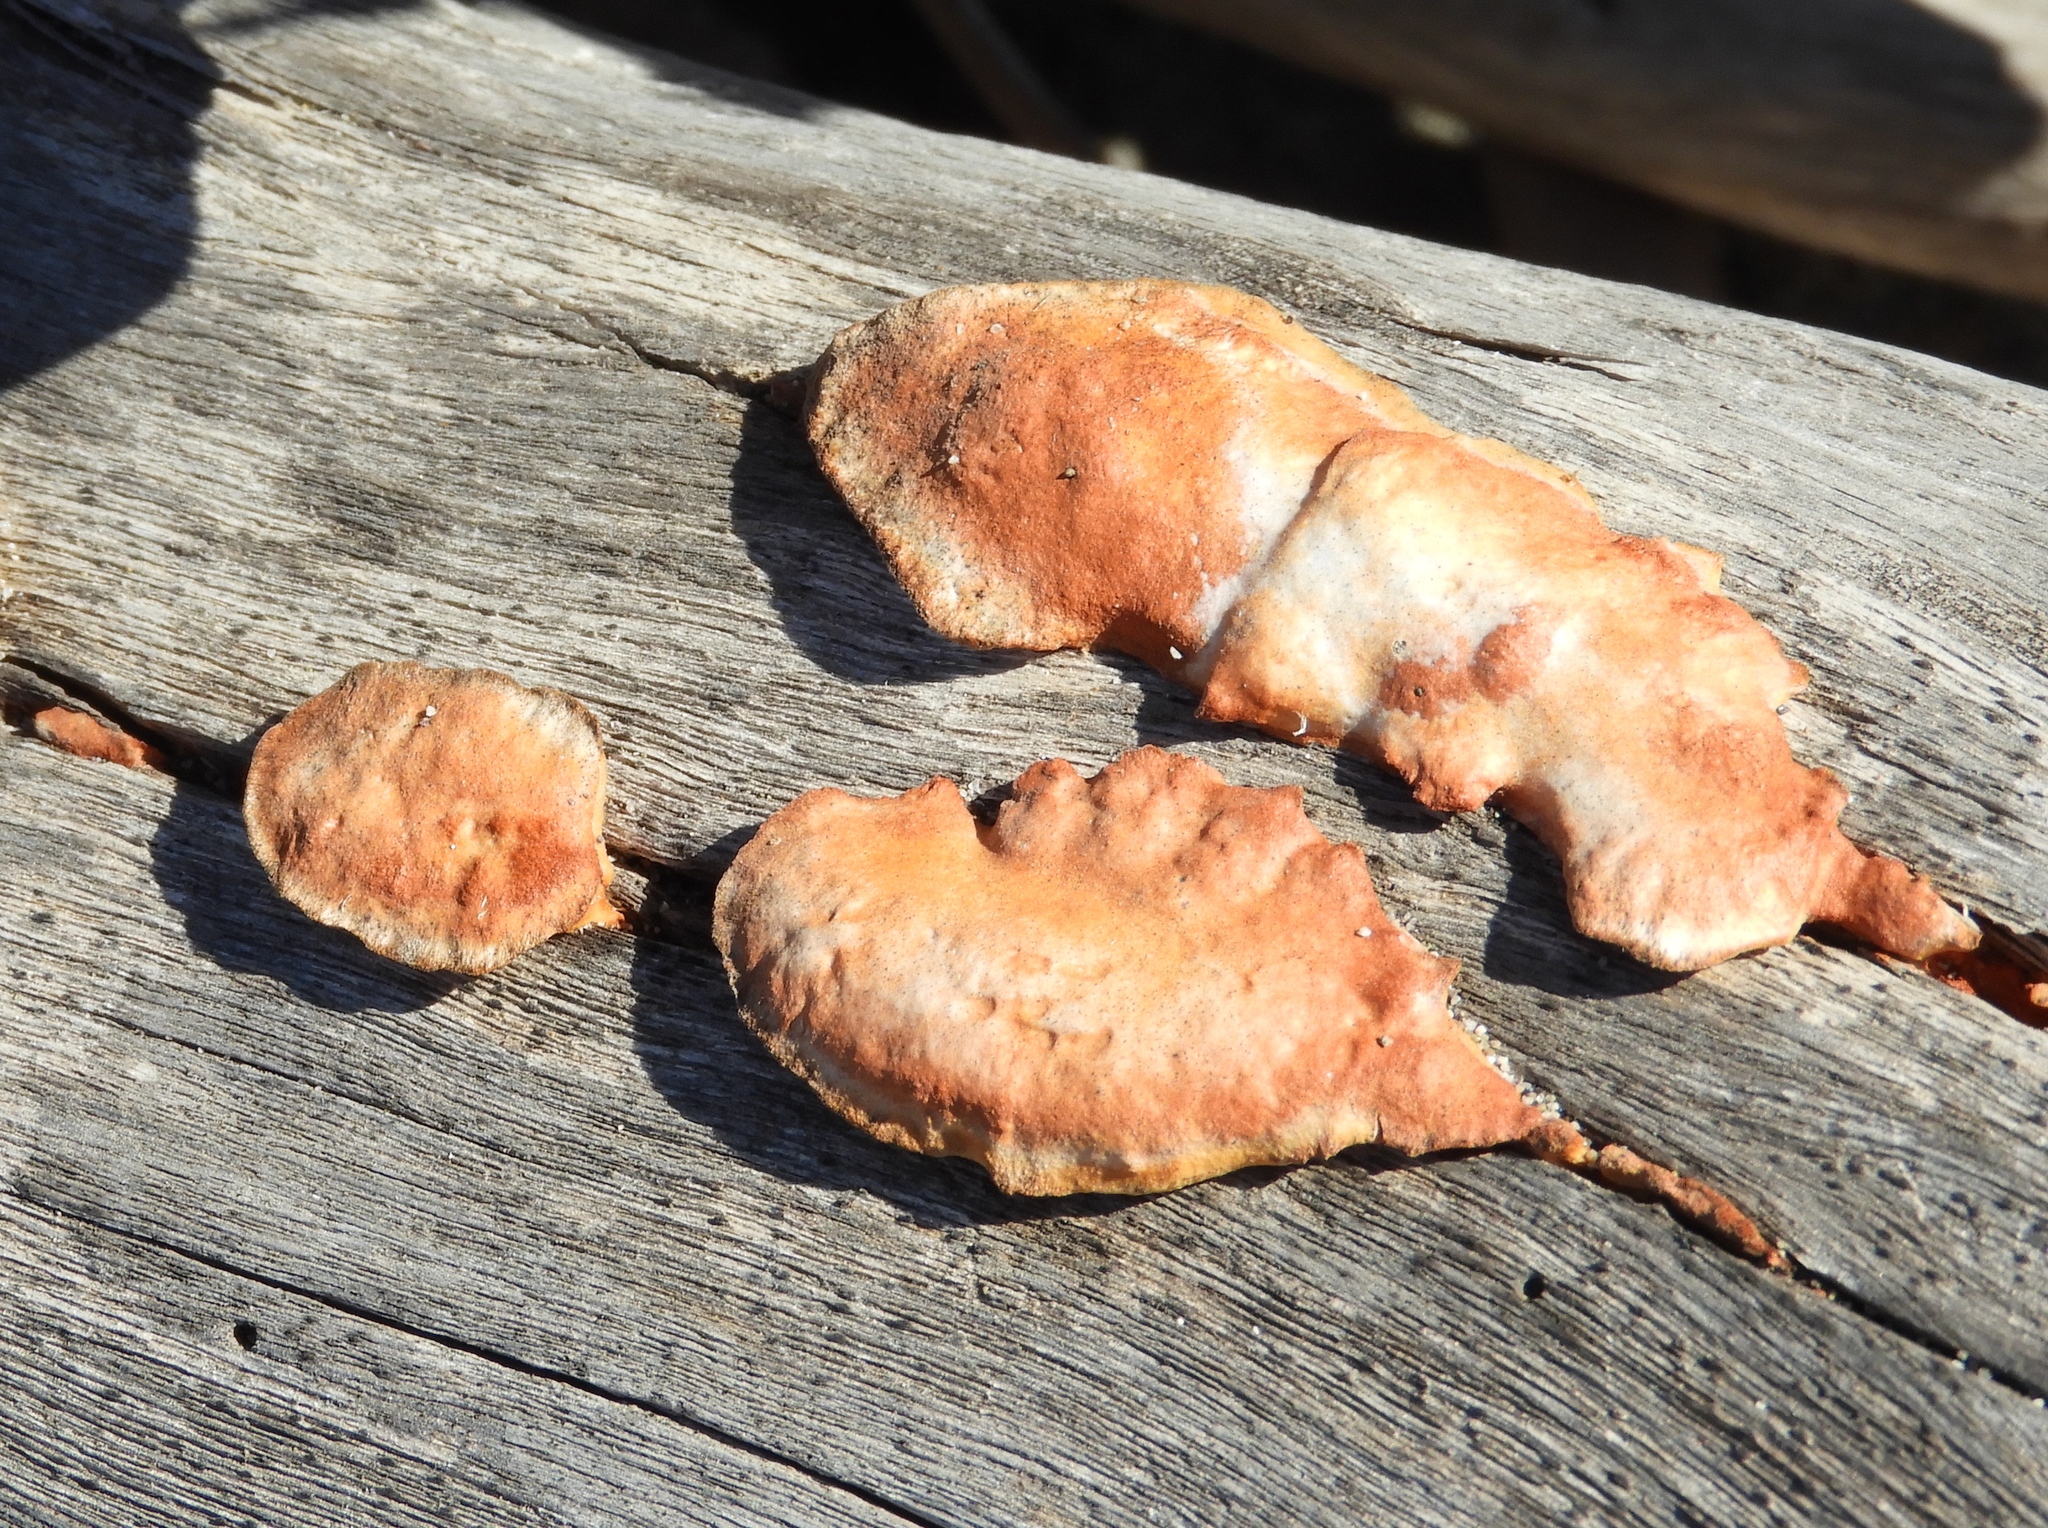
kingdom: Fungi
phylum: Basidiomycota
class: Agaricomycetes
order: Polyporales
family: Polyporaceae
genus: Trametes
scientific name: Trametes cinnabarina
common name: Northern cinnabar polypore
